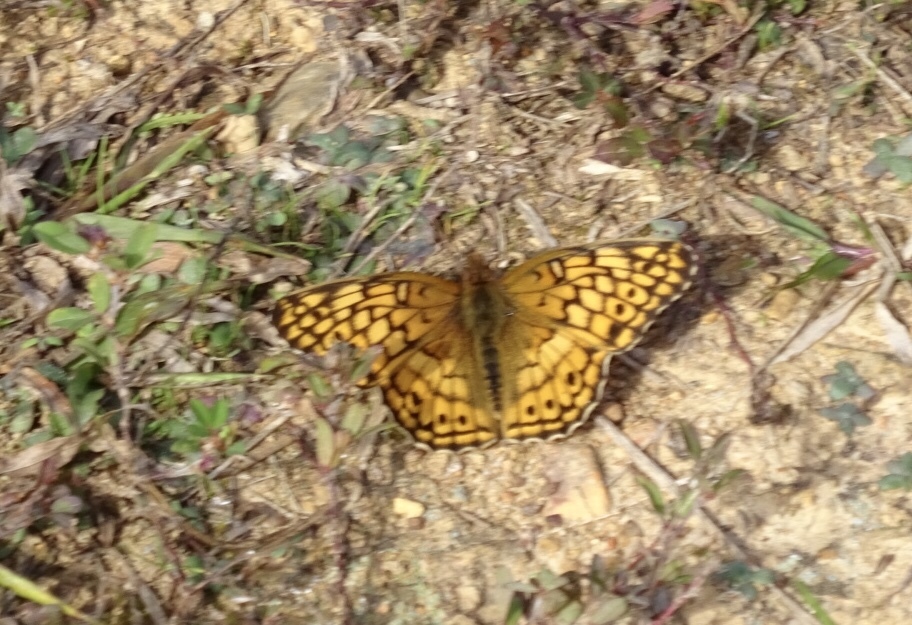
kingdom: Animalia
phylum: Arthropoda
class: Insecta
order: Lepidoptera
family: Nymphalidae
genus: Euptoieta
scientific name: Euptoieta claudia
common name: Variegated fritillary
